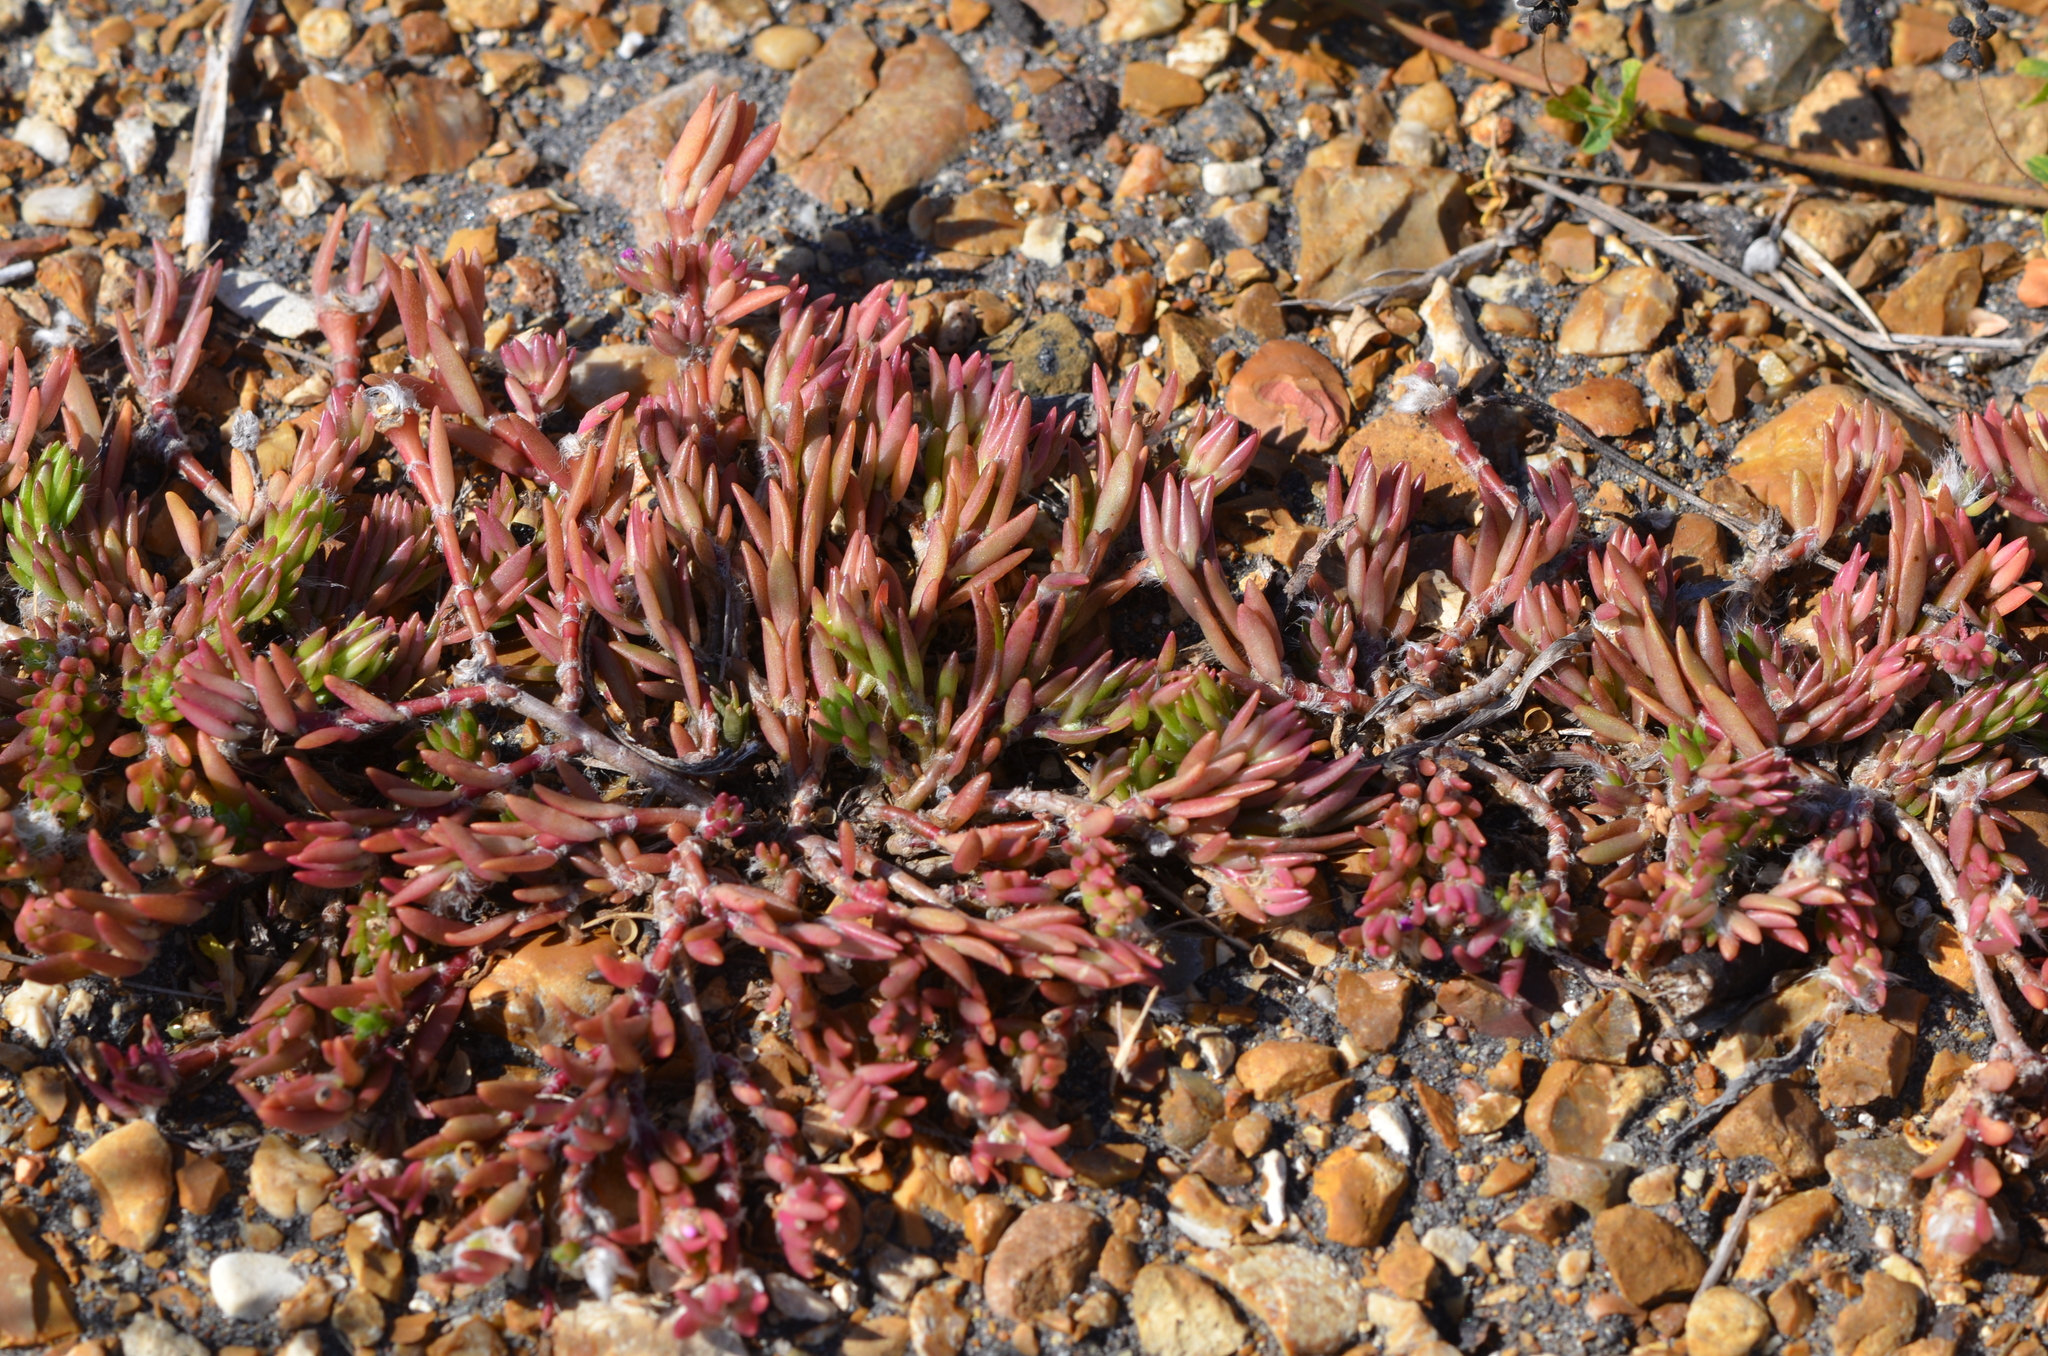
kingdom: Plantae
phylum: Tracheophyta
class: Magnoliopsida
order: Caryophyllales
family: Portulacaceae
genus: Portulaca
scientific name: Portulaca pilosa
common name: Kiss me quick
